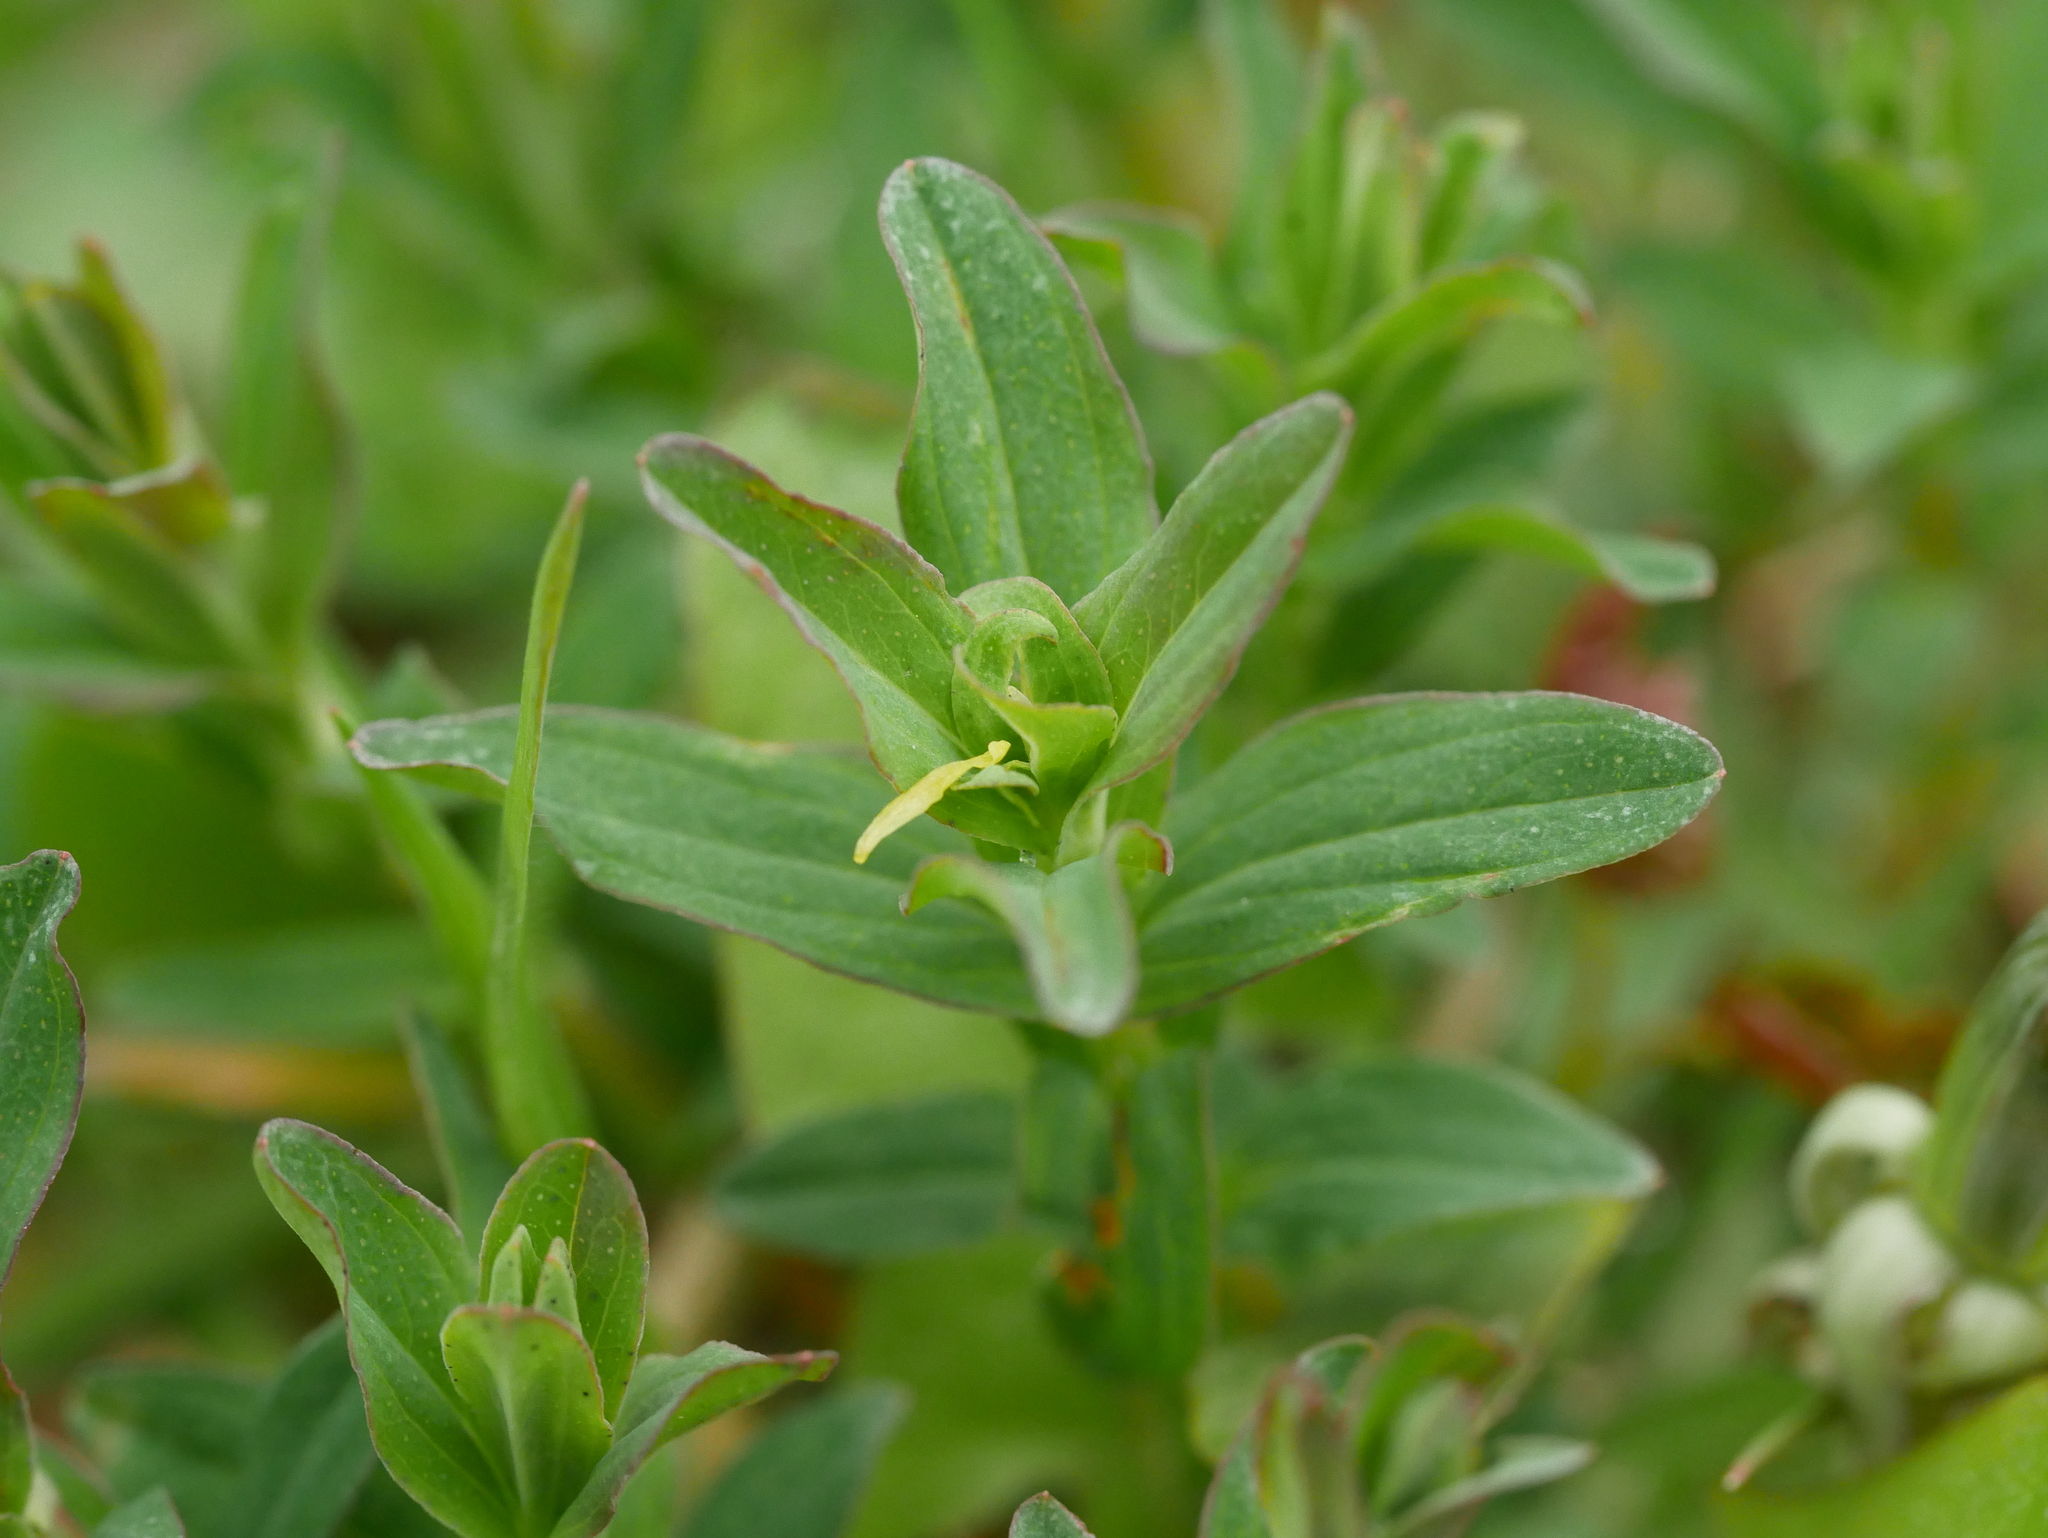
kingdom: Plantae
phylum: Tracheophyta
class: Magnoliopsida
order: Malpighiales
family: Hypericaceae
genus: Hypericum
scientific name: Hypericum perforatum
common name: Common st. johnswort
